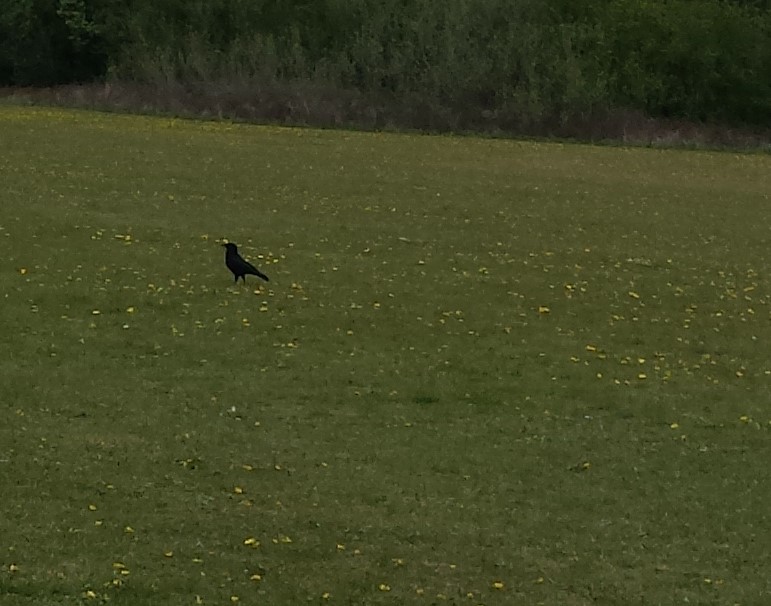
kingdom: Animalia
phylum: Chordata
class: Aves
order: Passeriformes
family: Corvidae
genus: Corvus
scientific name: Corvus corone
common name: Carrion crow
